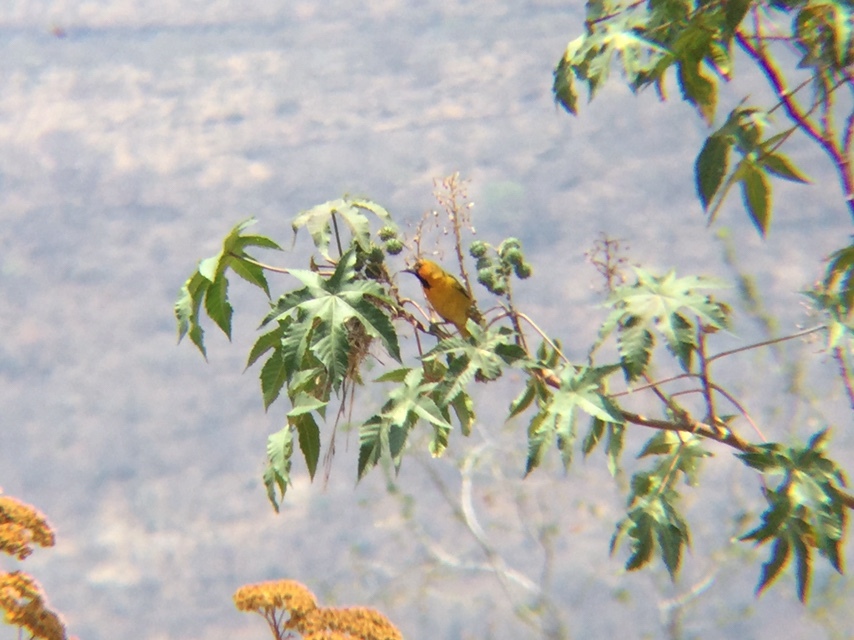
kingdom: Animalia
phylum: Chordata
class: Aves
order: Passeriformes
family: Icteridae
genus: Icterus
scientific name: Icterus pustulatus
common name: Streak-backed oriole
